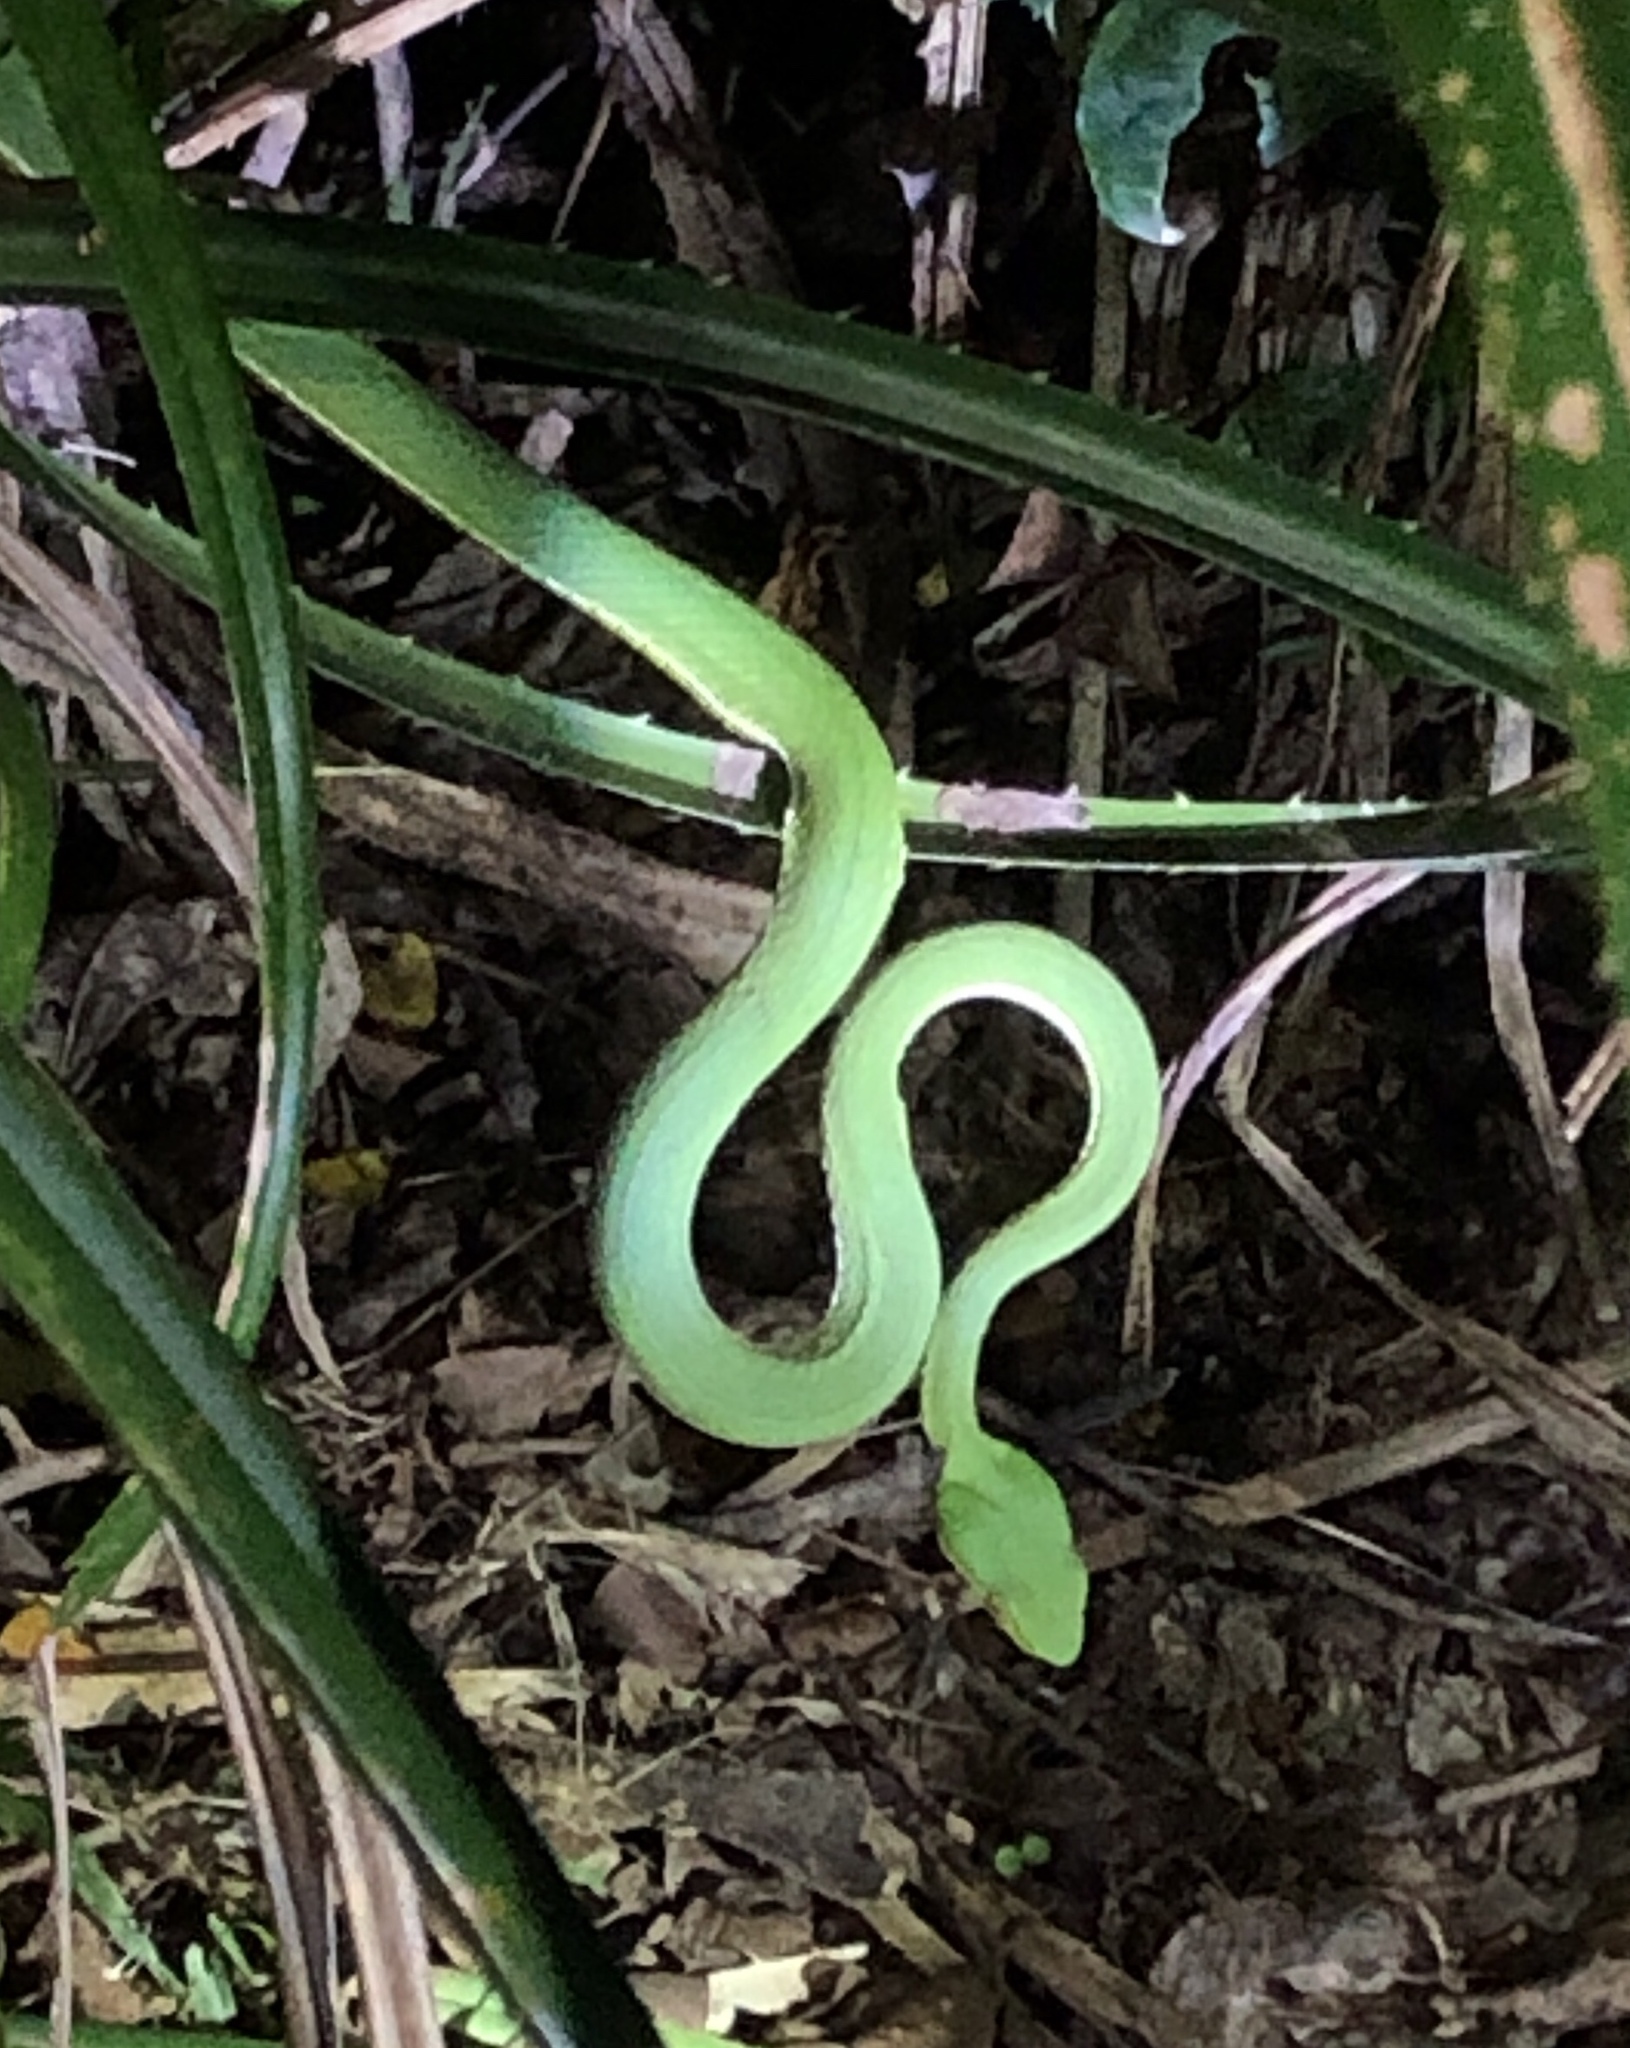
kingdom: Animalia
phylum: Chordata
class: Squamata
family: Viperidae
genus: Trimeresurus
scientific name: Trimeresurus stejnegeri
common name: Chen’s bamboo pit viper
